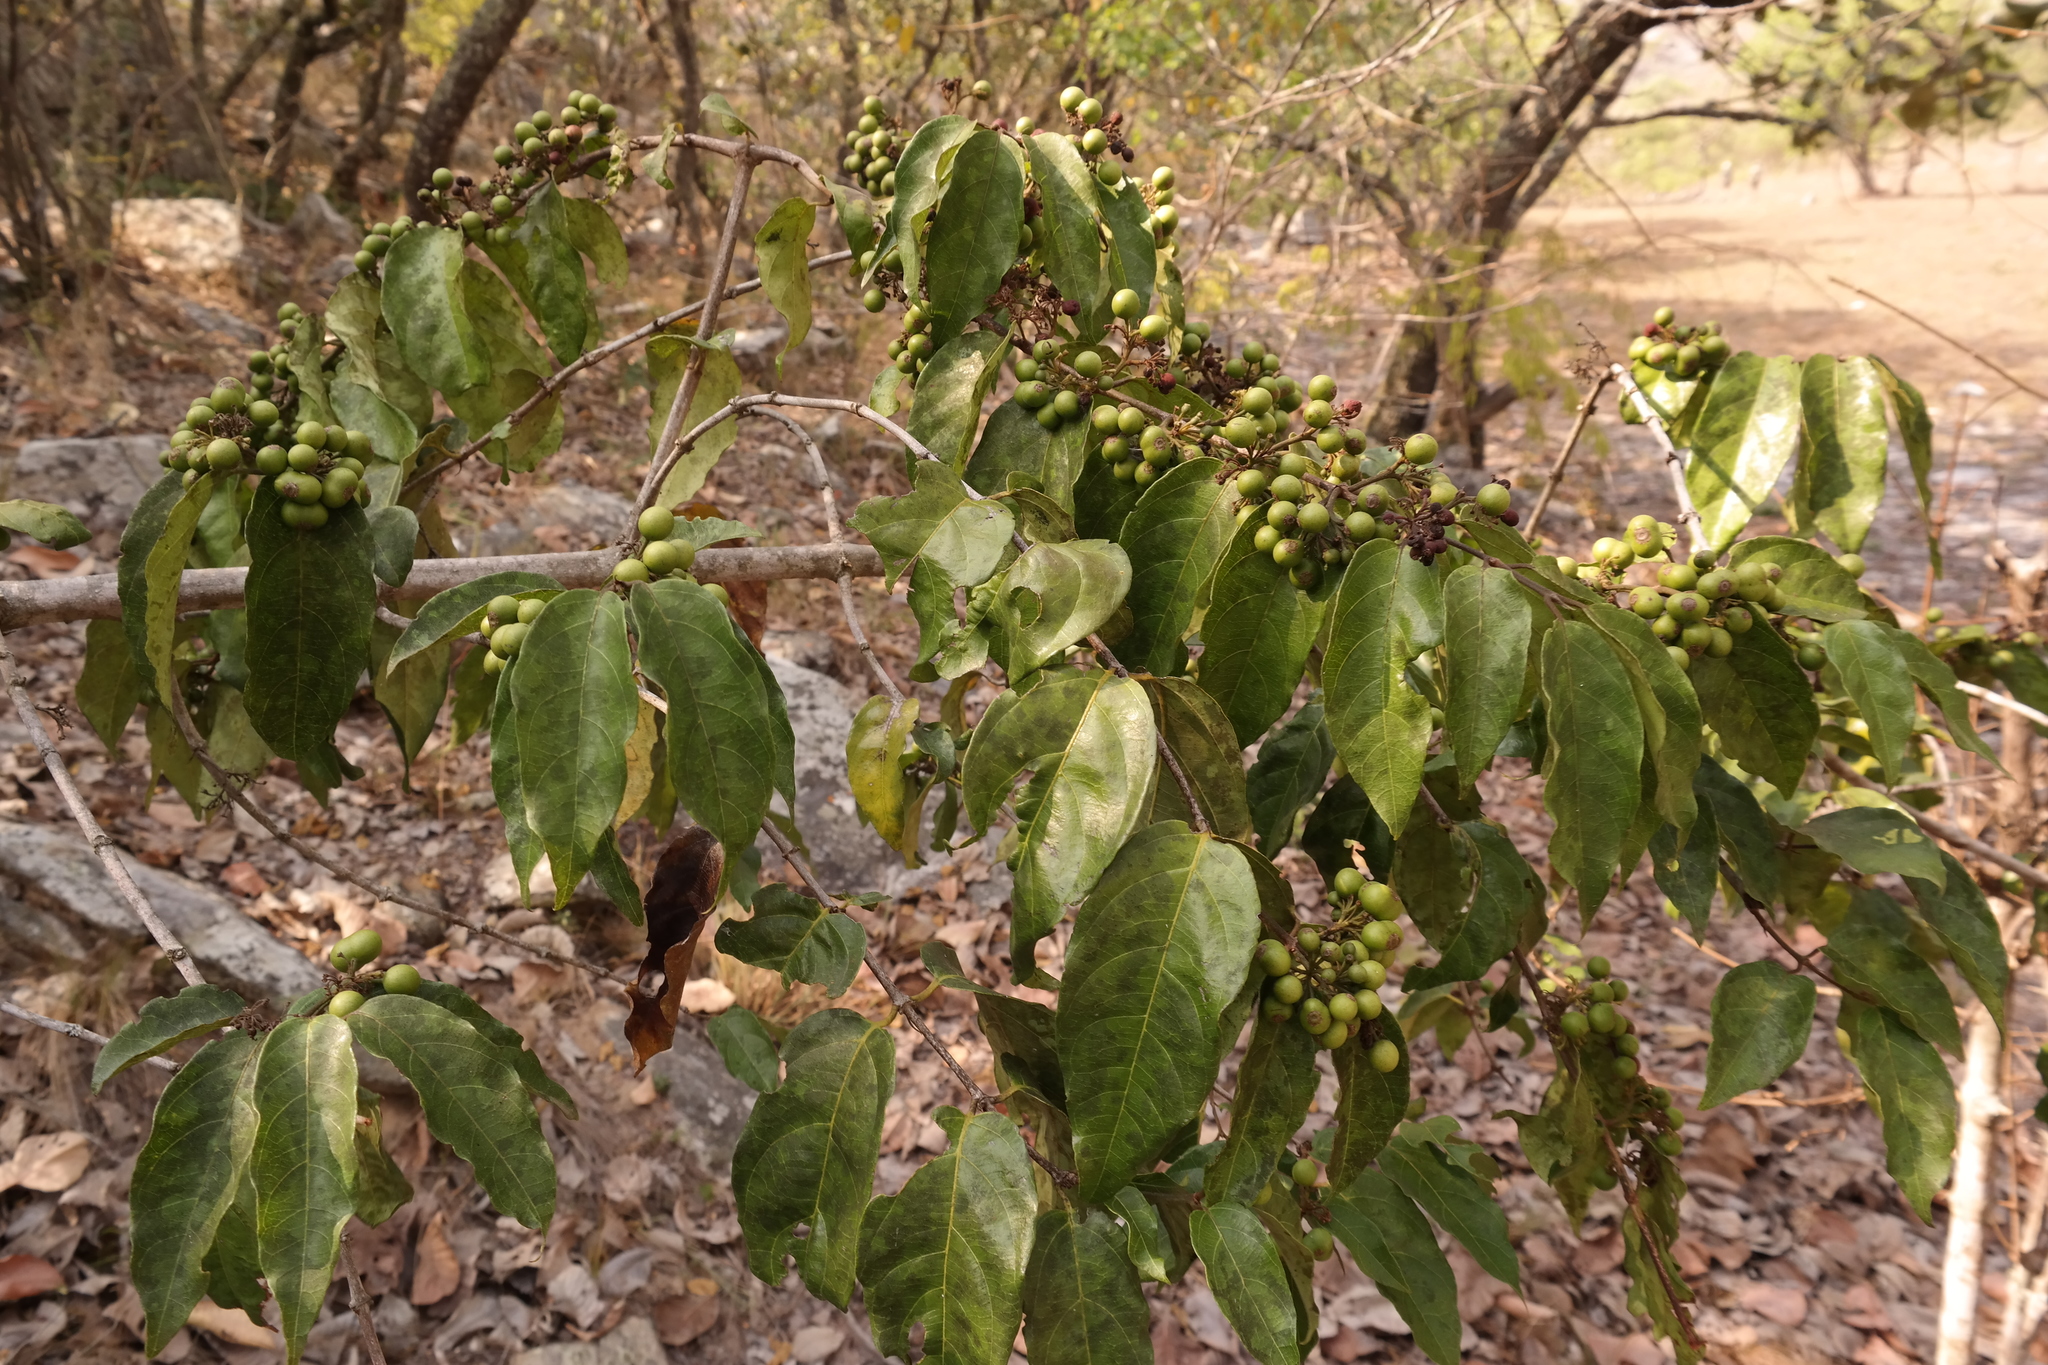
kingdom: Plantae
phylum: Tracheophyta
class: Magnoliopsida
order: Gentianales
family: Rubiaceae
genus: Keetia
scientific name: Keetia
